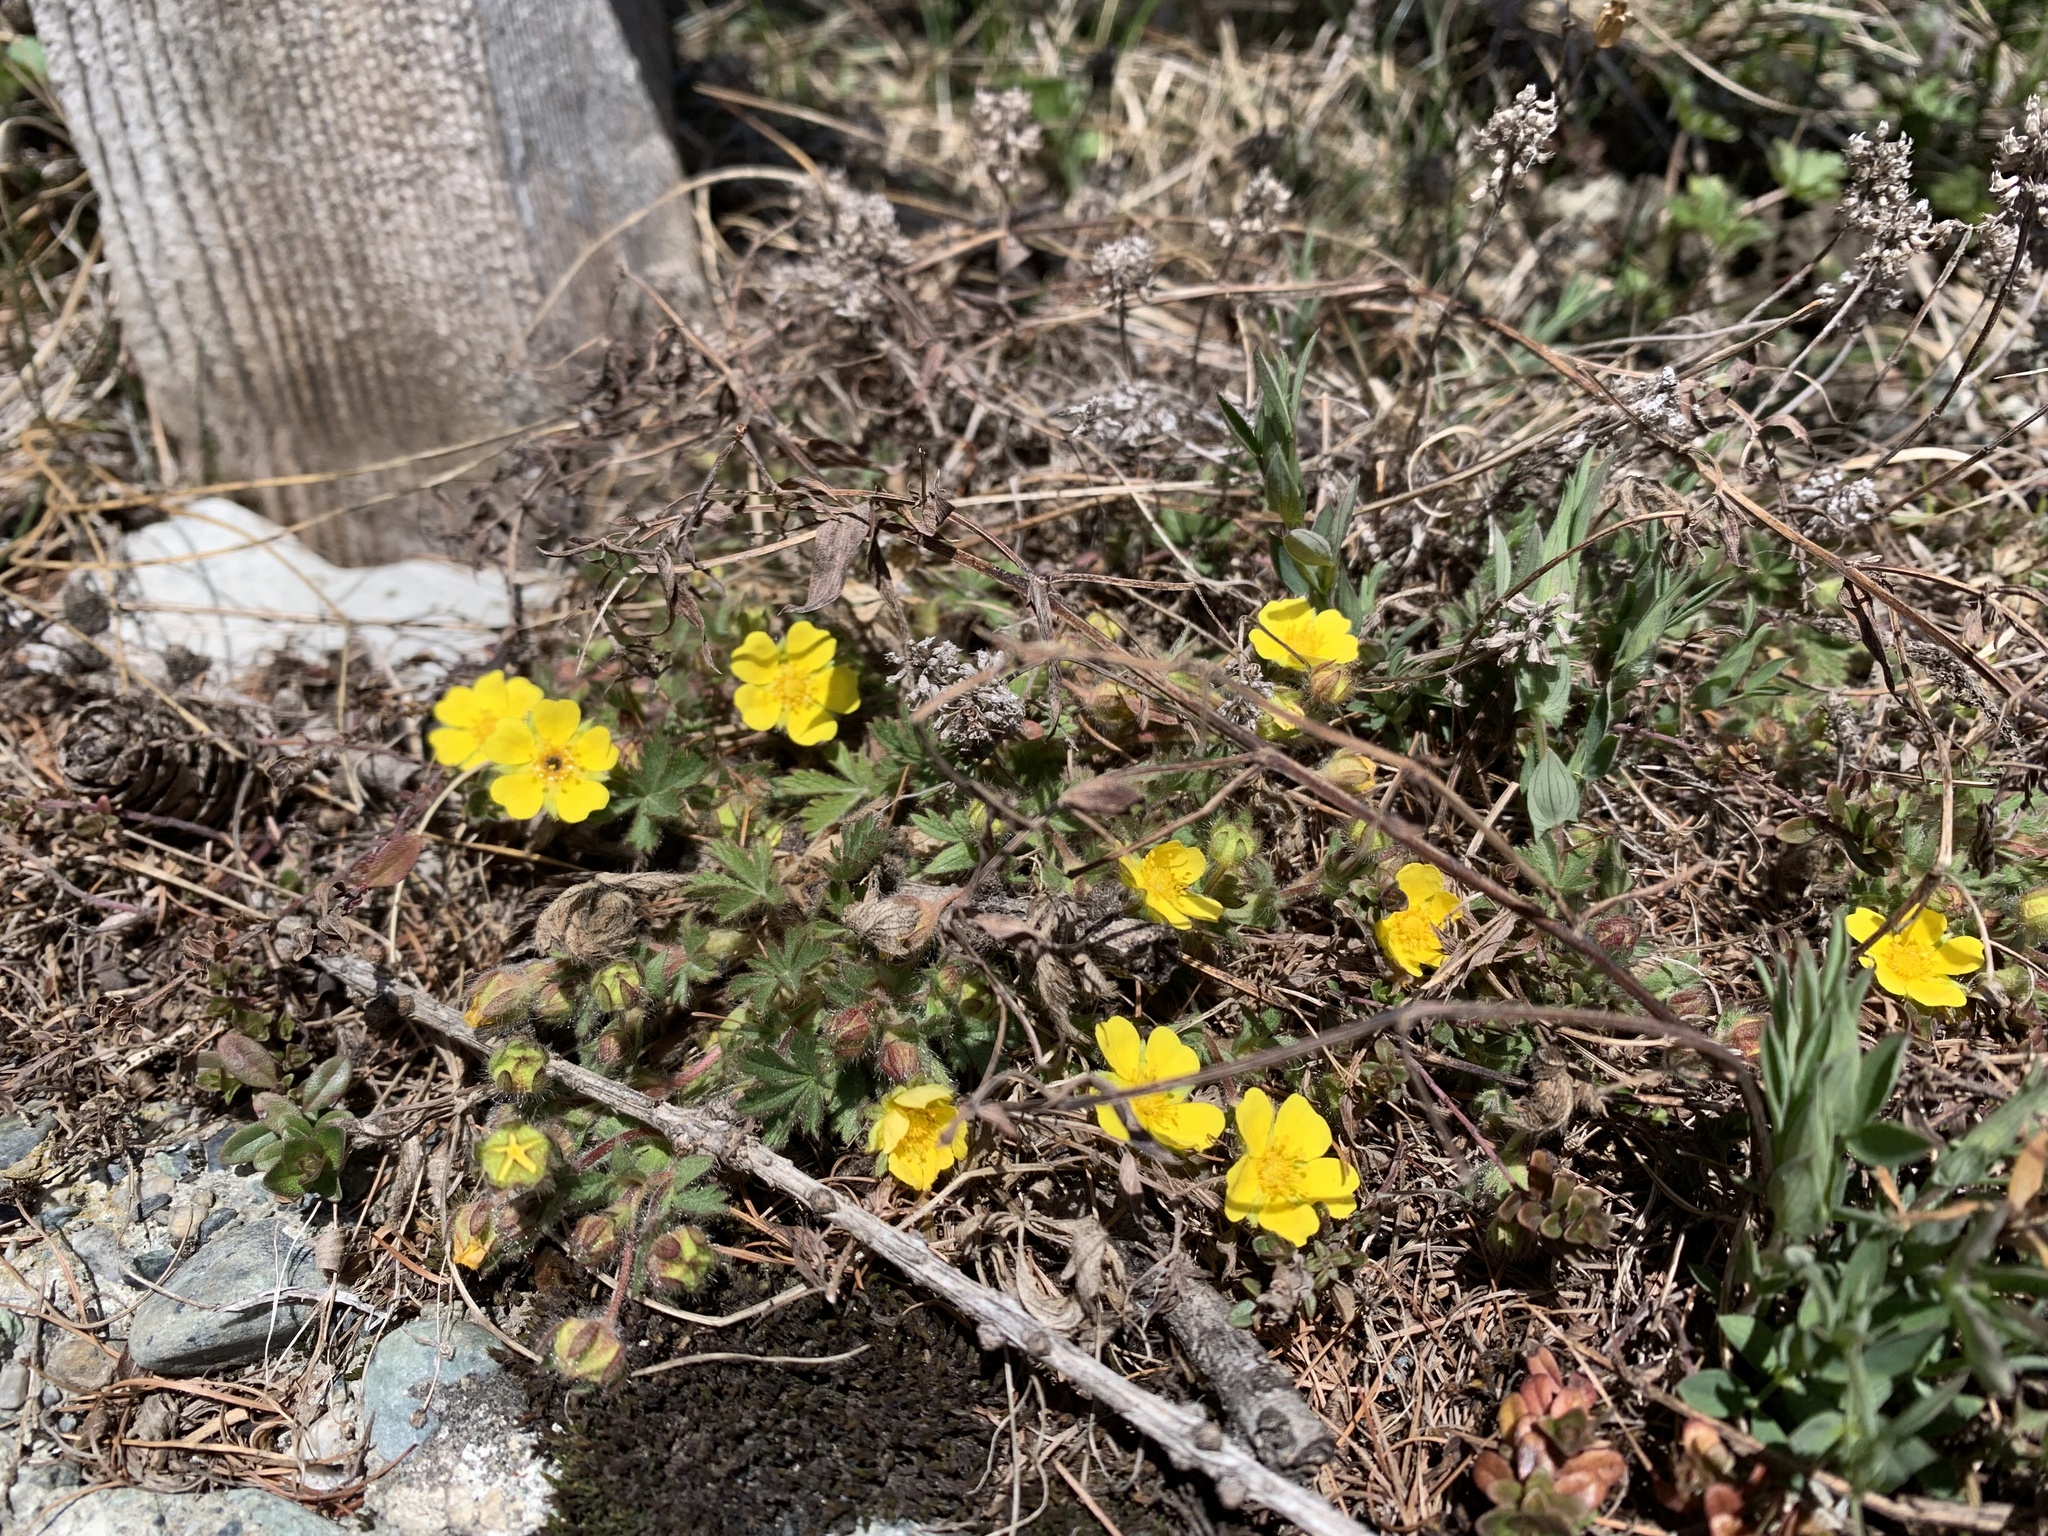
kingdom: Plantae
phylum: Tracheophyta
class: Magnoliopsida
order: Rosales
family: Rosaceae
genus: Potentilla
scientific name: Potentilla verna
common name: Spring cinquefoil
